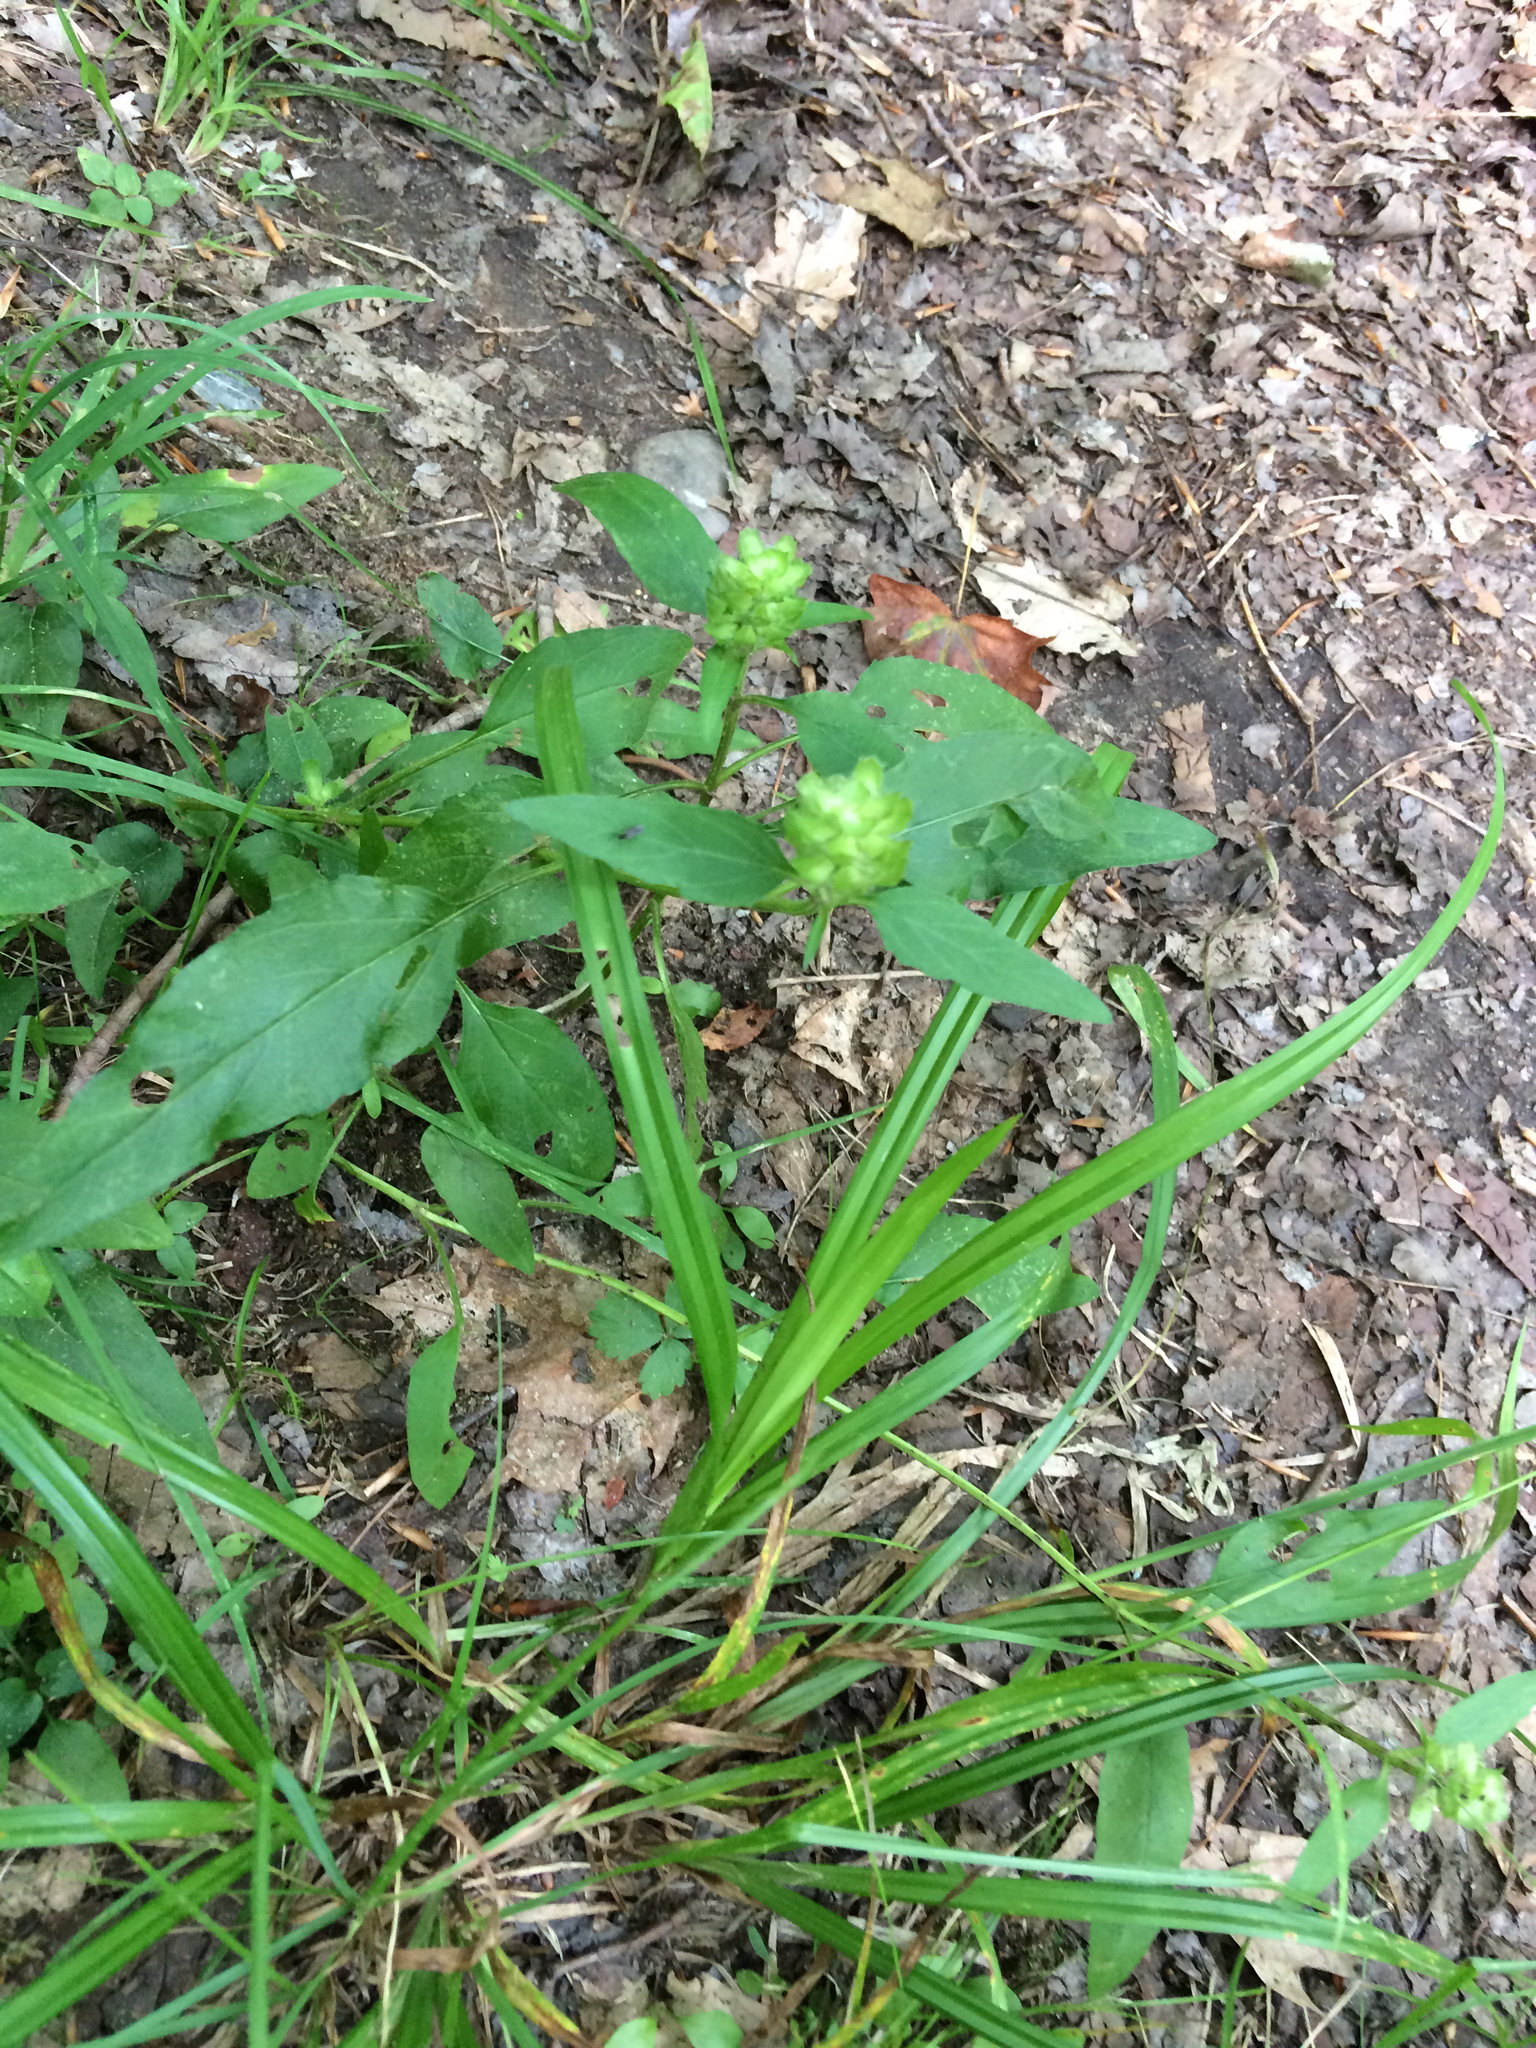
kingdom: Plantae
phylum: Tracheophyta
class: Magnoliopsida
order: Lamiales
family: Lamiaceae
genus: Prunella
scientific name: Prunella vulgaris
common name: Heal-all
